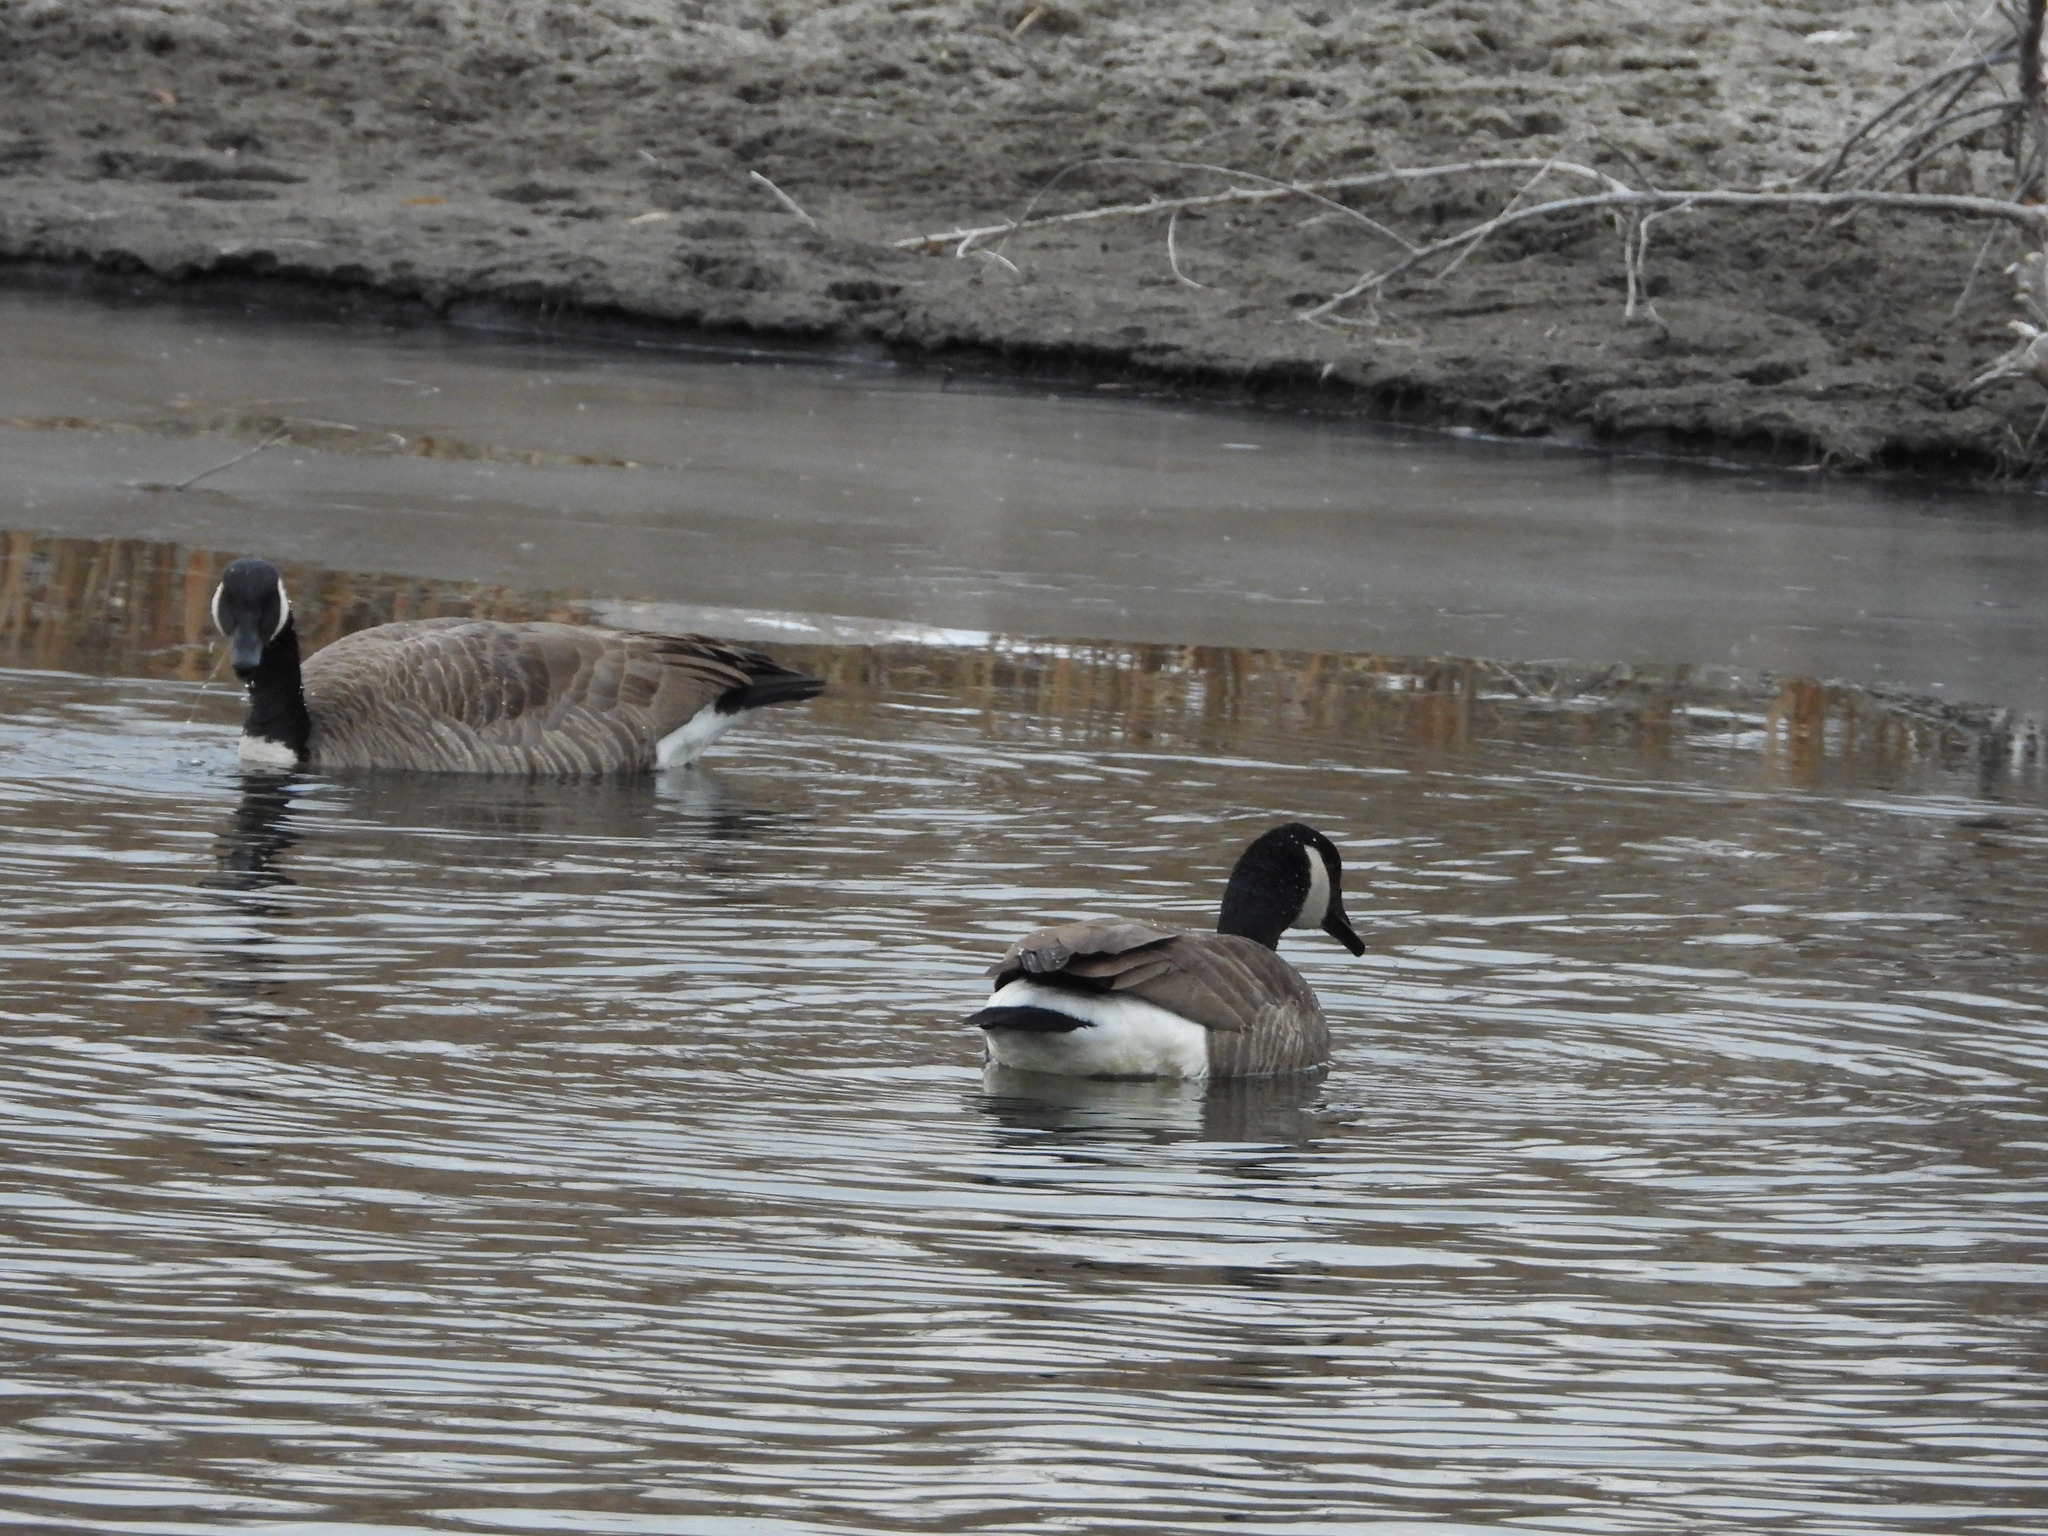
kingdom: Animalia
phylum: Chordata
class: Aves
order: Anseriformes
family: Anatidae
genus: Branta
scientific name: Branta canadensis
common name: Canada goose
